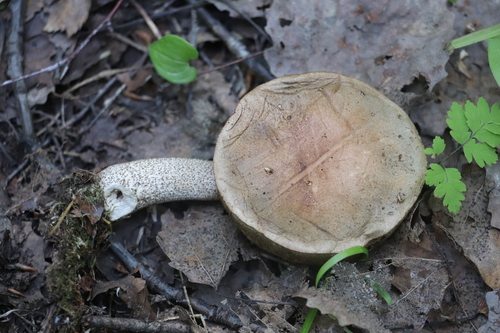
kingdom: Fungi
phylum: Basidiomycota
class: Agaricomycetes
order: Boletales
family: Boletaceae
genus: Leccinum
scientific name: Leccinum scabrum
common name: Blushing bolete
